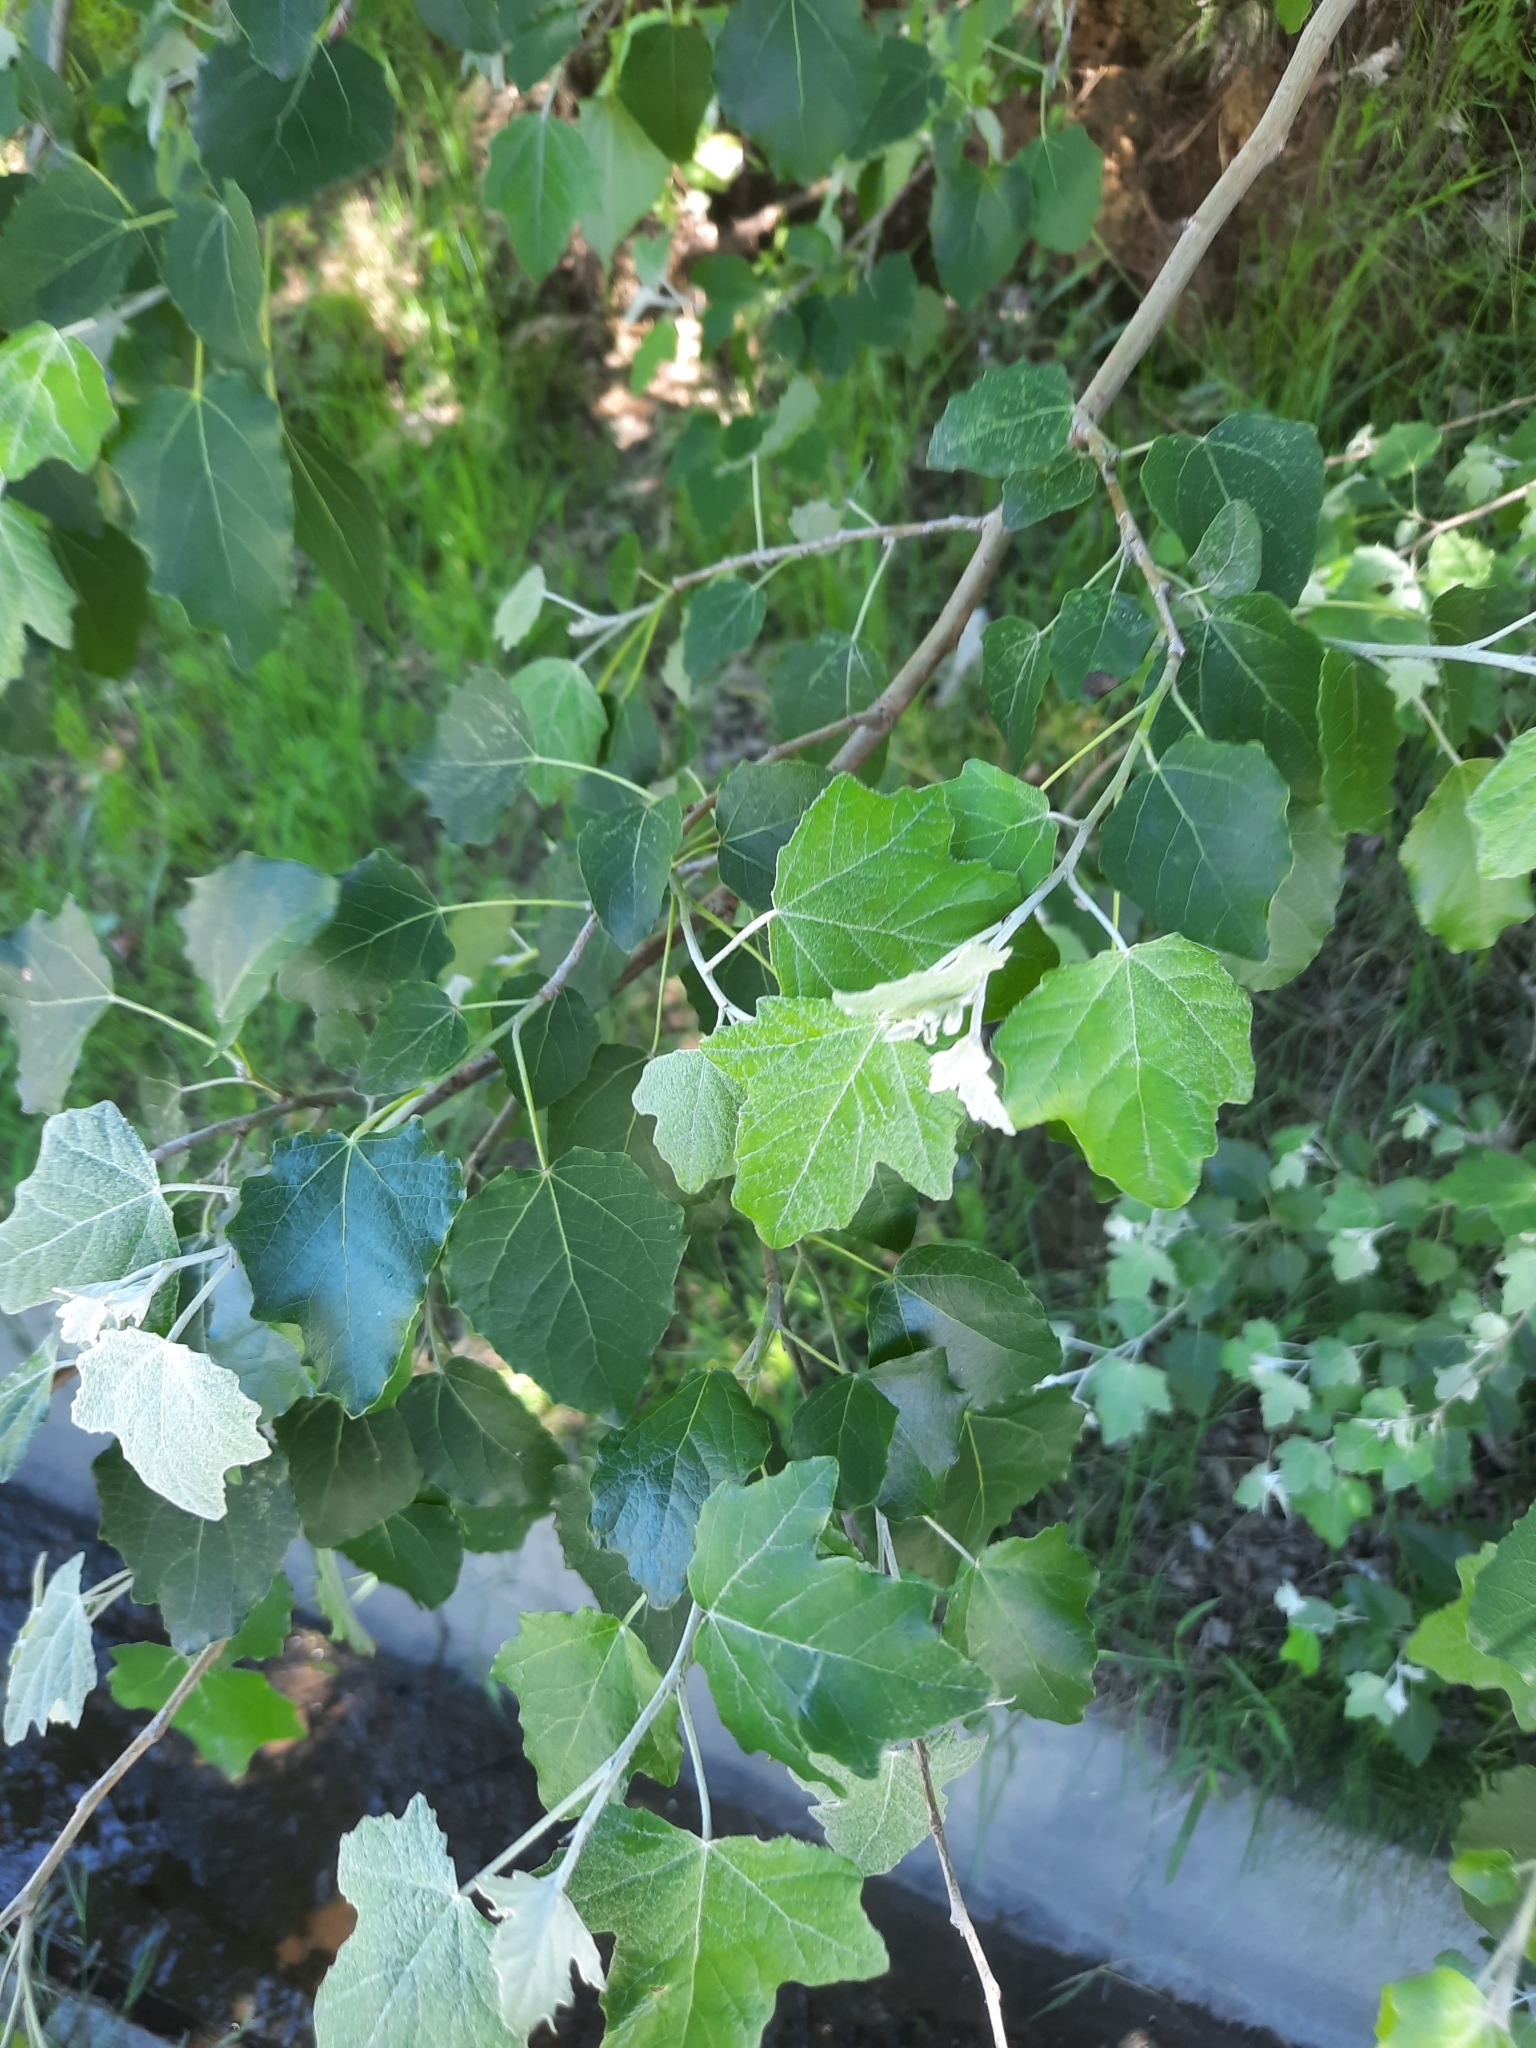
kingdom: Plantae
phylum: Tracheophyta
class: Magnoliopsida
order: Malpighiales
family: Salicaceae
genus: Populus
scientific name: Populus alba
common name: White poplar
